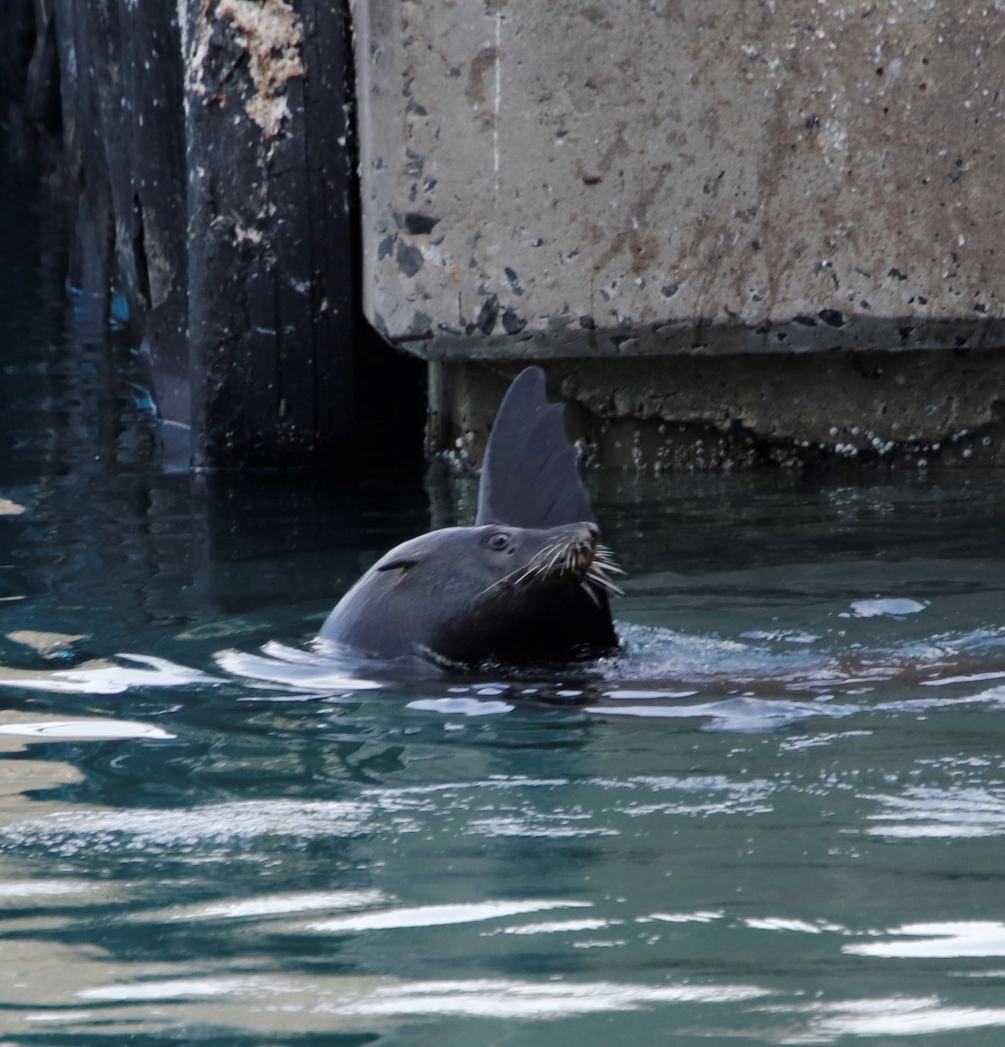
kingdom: Animalia
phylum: Chordata
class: Mammalia
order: Carnivora
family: Otariidae
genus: Arctocephalus
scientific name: Arctocephalus pusillus
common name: Brown fur seal
